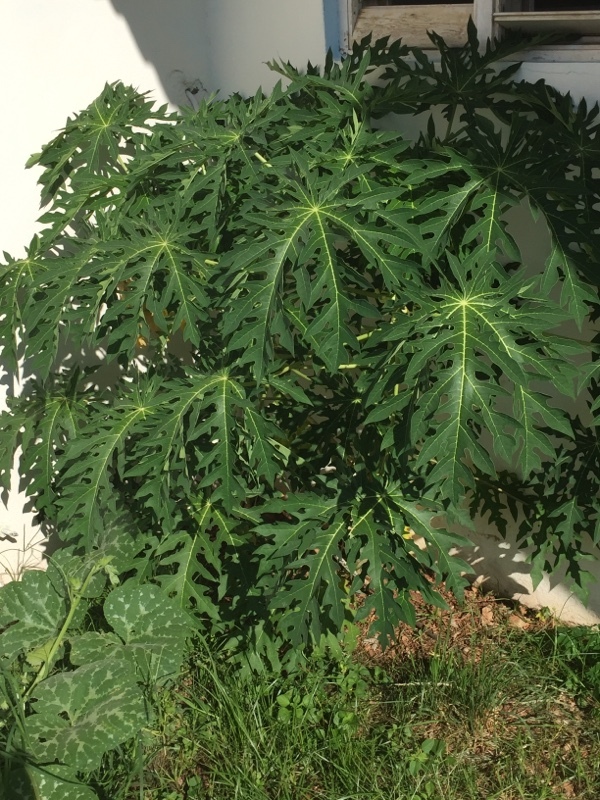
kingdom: Plantae
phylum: Tracheophyta
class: Magnoliopsida
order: Brassicales
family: Caricaceae
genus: Carica
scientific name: Carica papaya
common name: Papaya
